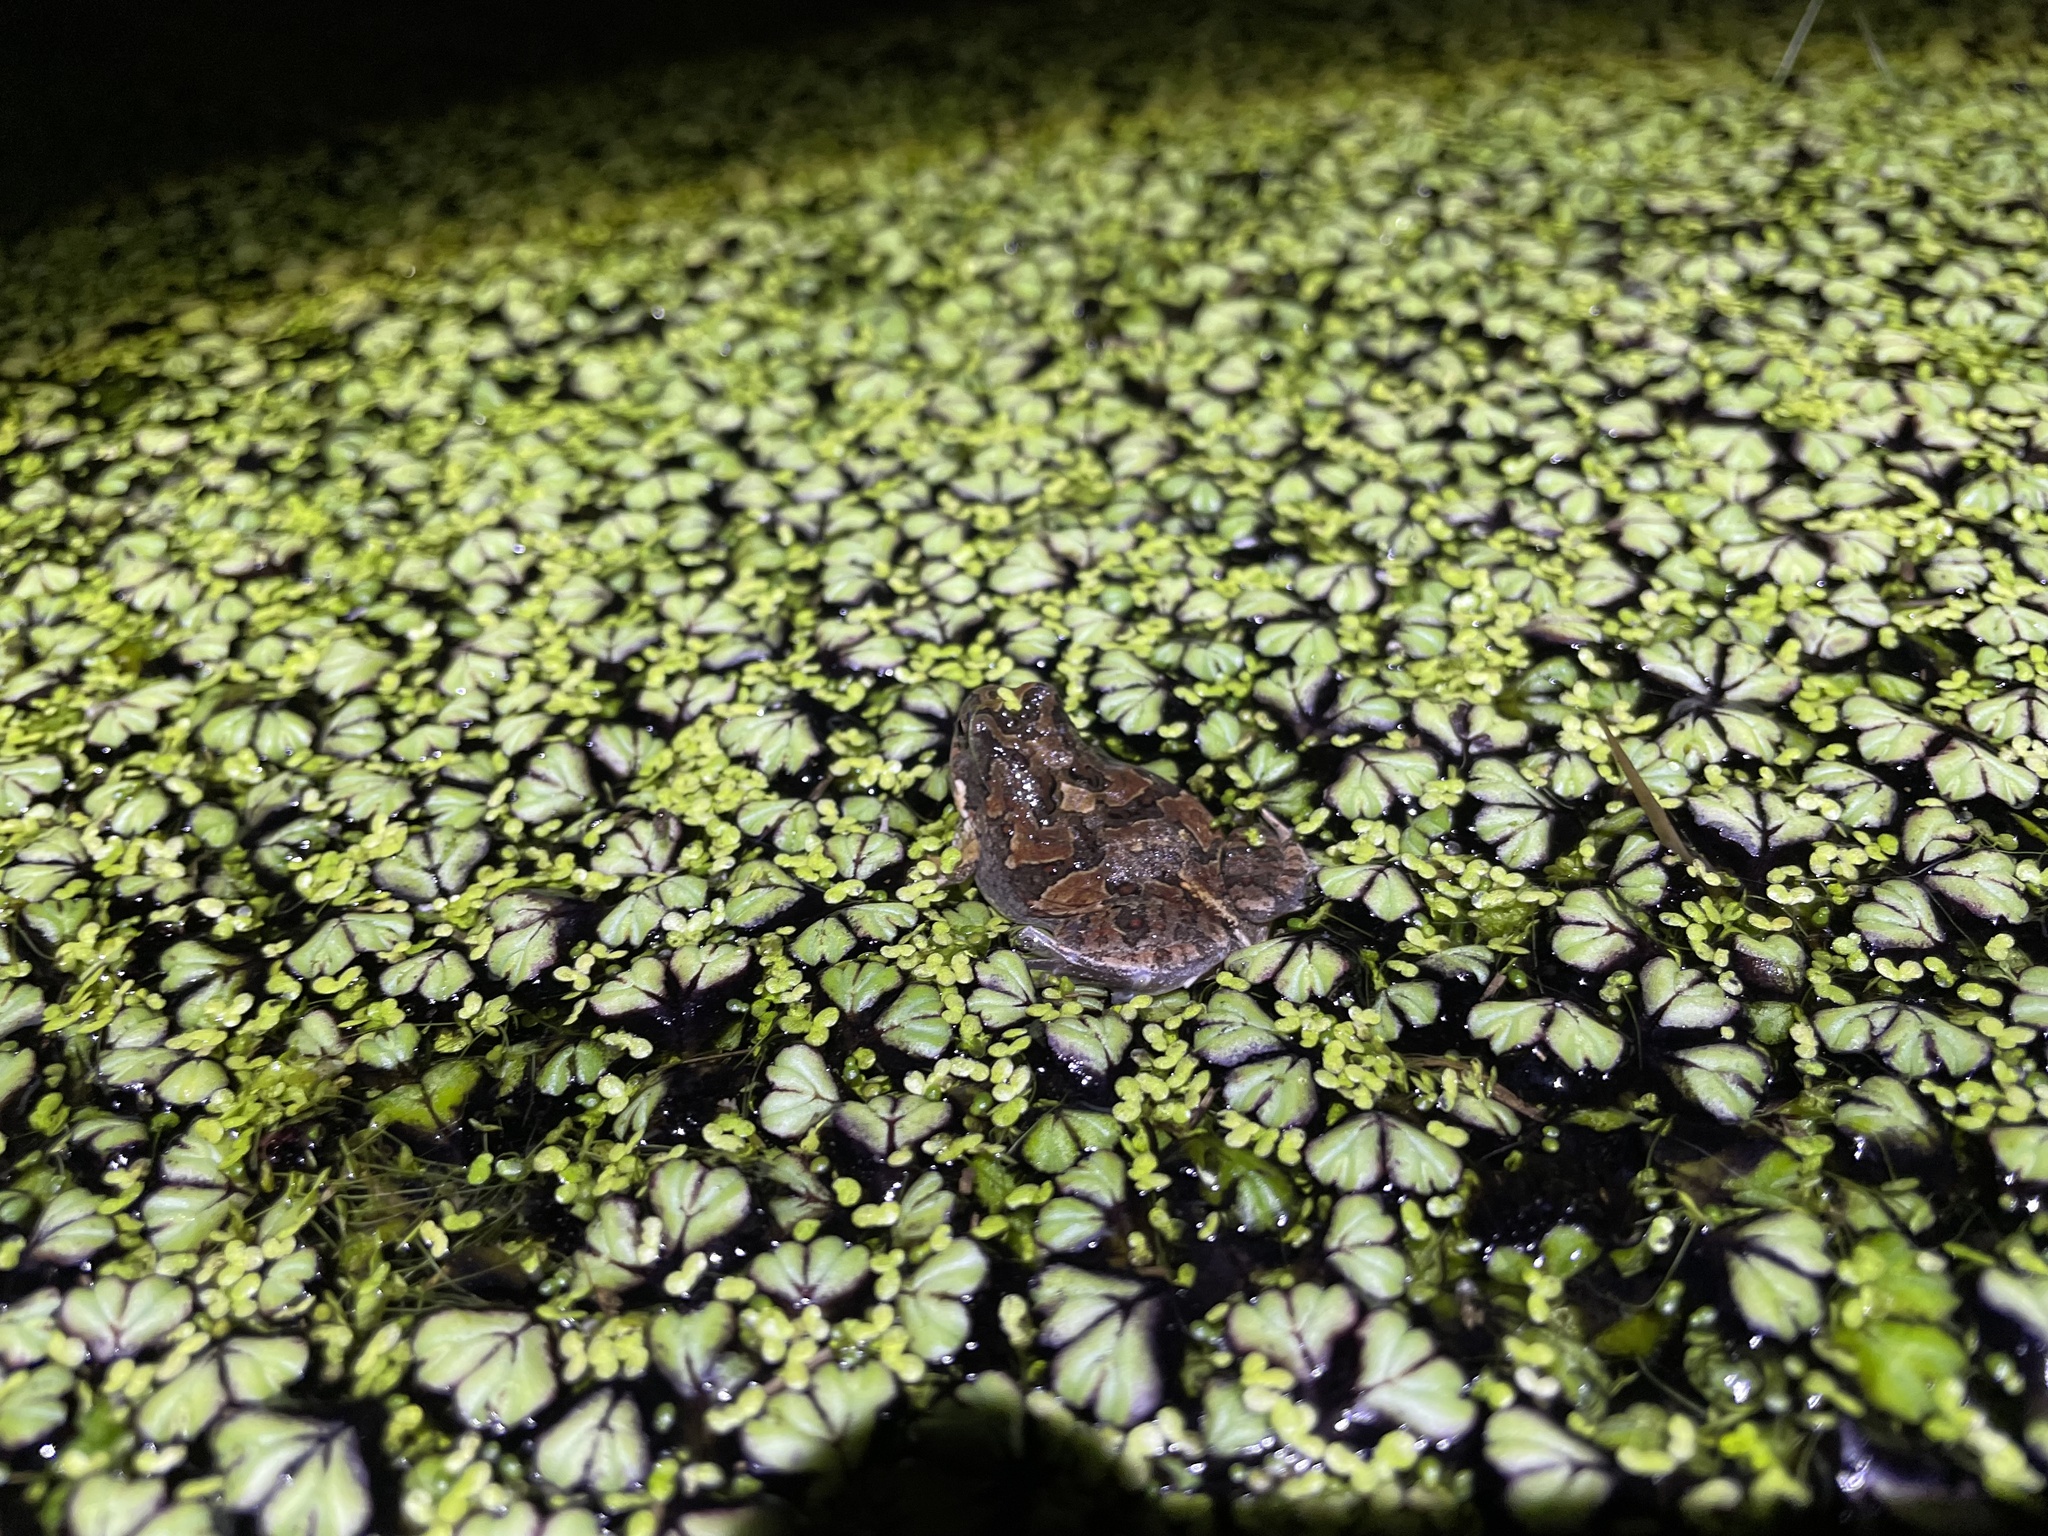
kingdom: Animalia
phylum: Chordata
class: Amphibia
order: Anura
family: Leptodactylidae
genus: Physalaemus
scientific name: Physalaemus biligonigerus
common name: Weeping frog
